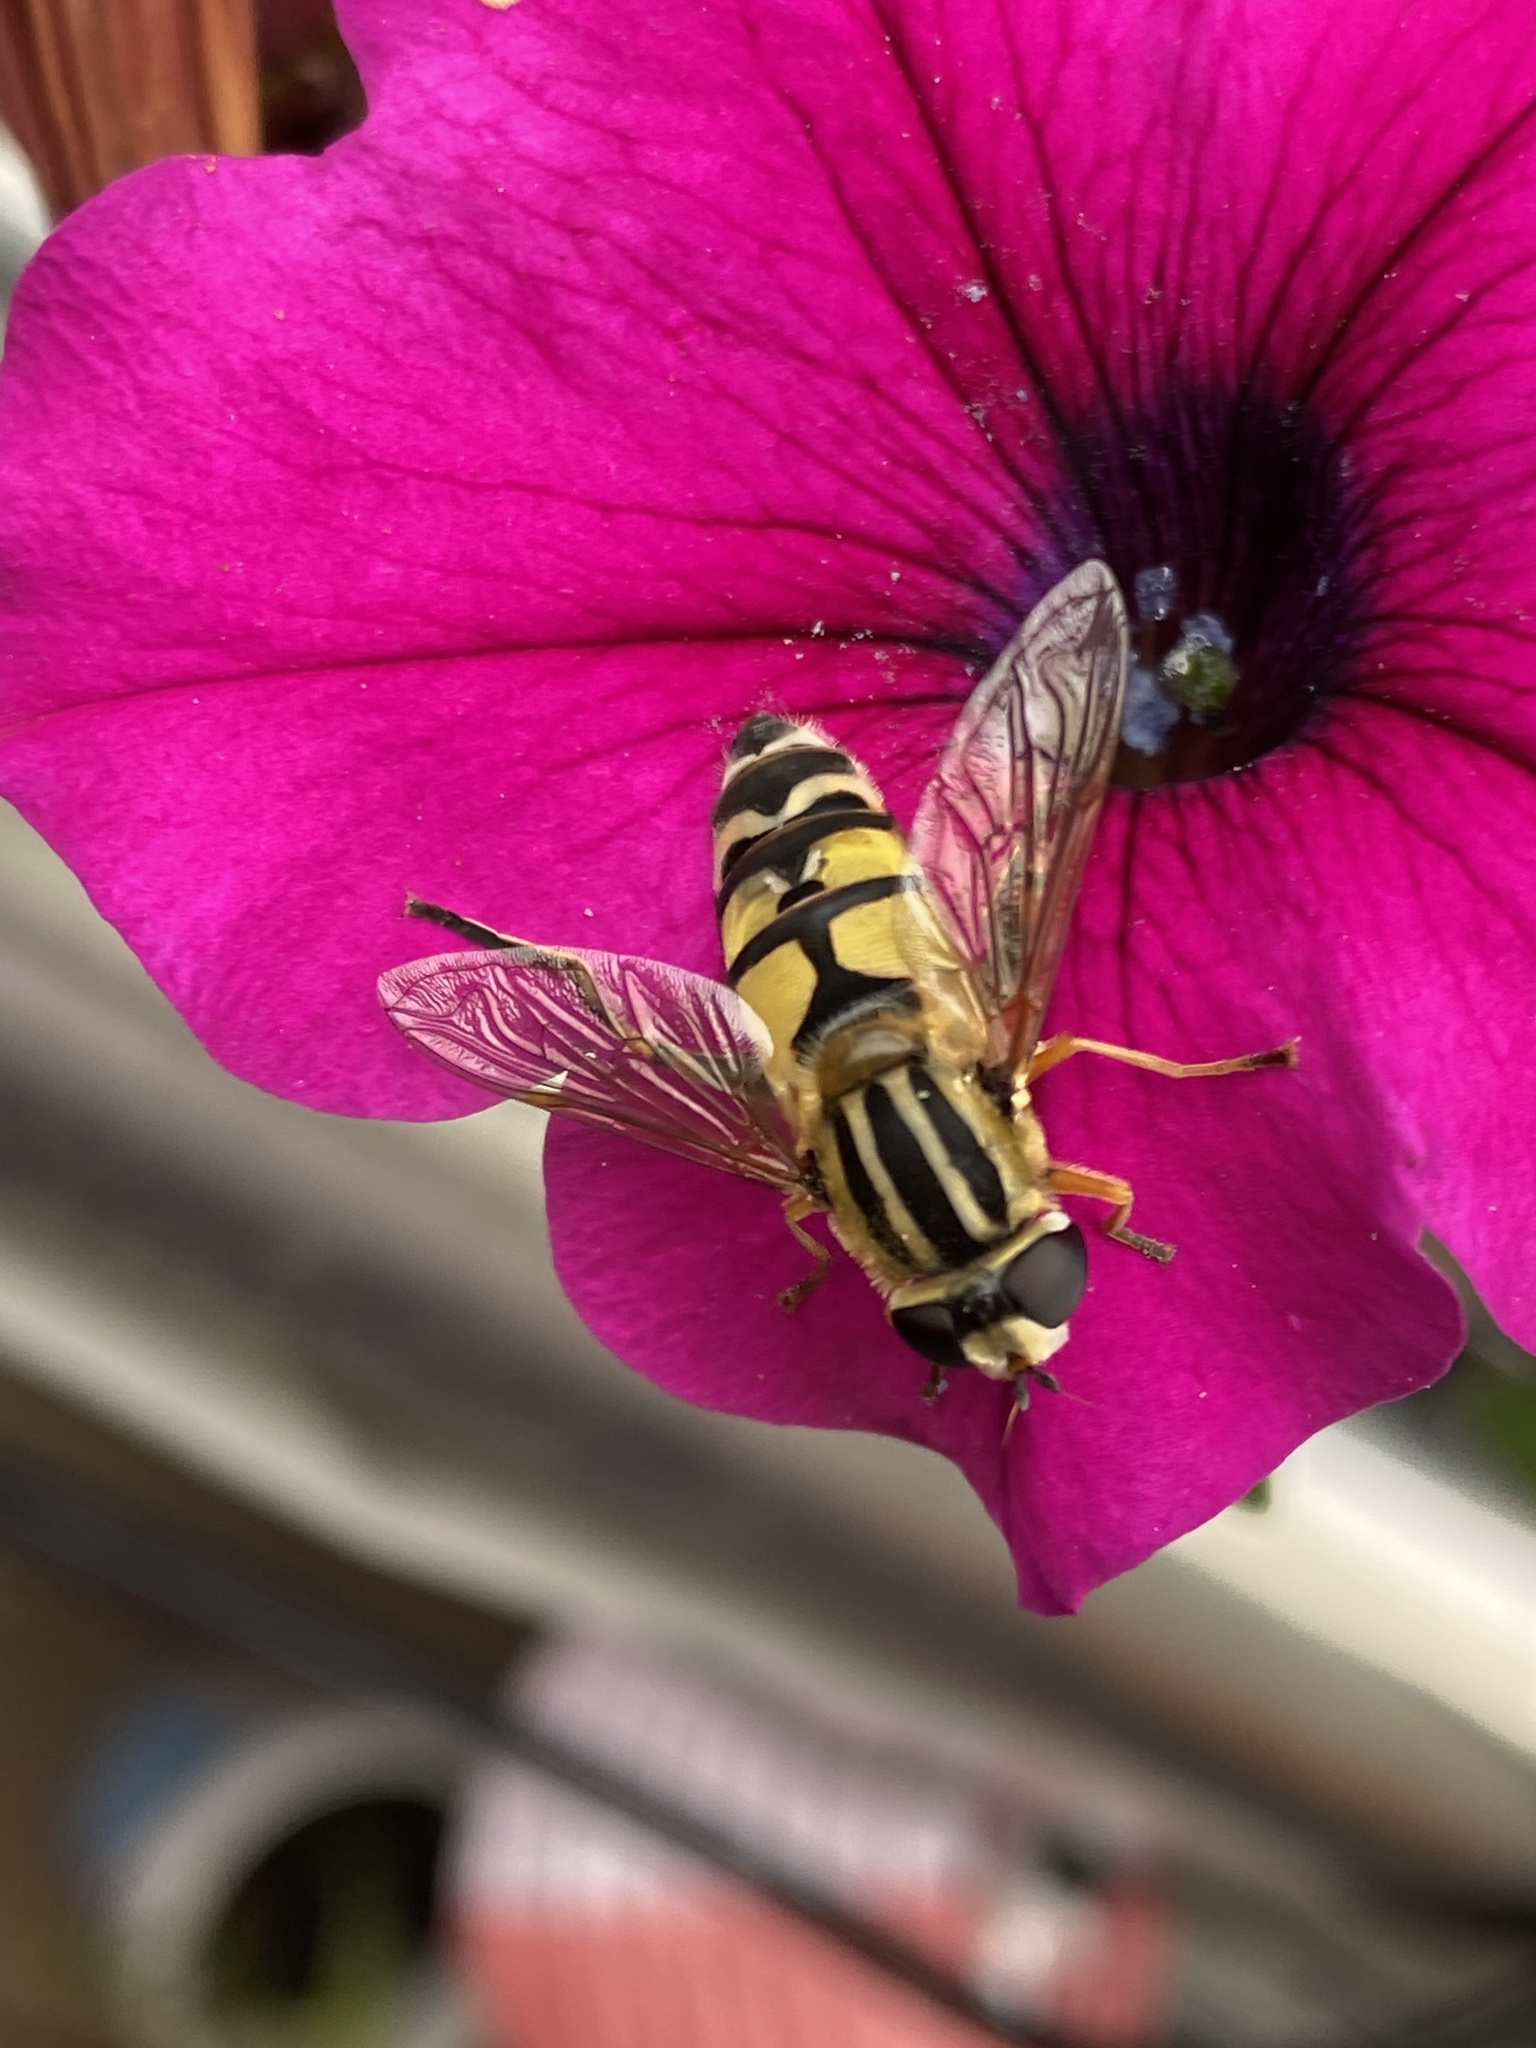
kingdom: Animalia
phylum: Arthropoda
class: Insecta
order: Diptera
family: Syrphidae
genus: Helophilus
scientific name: Helophilus trivittatus
